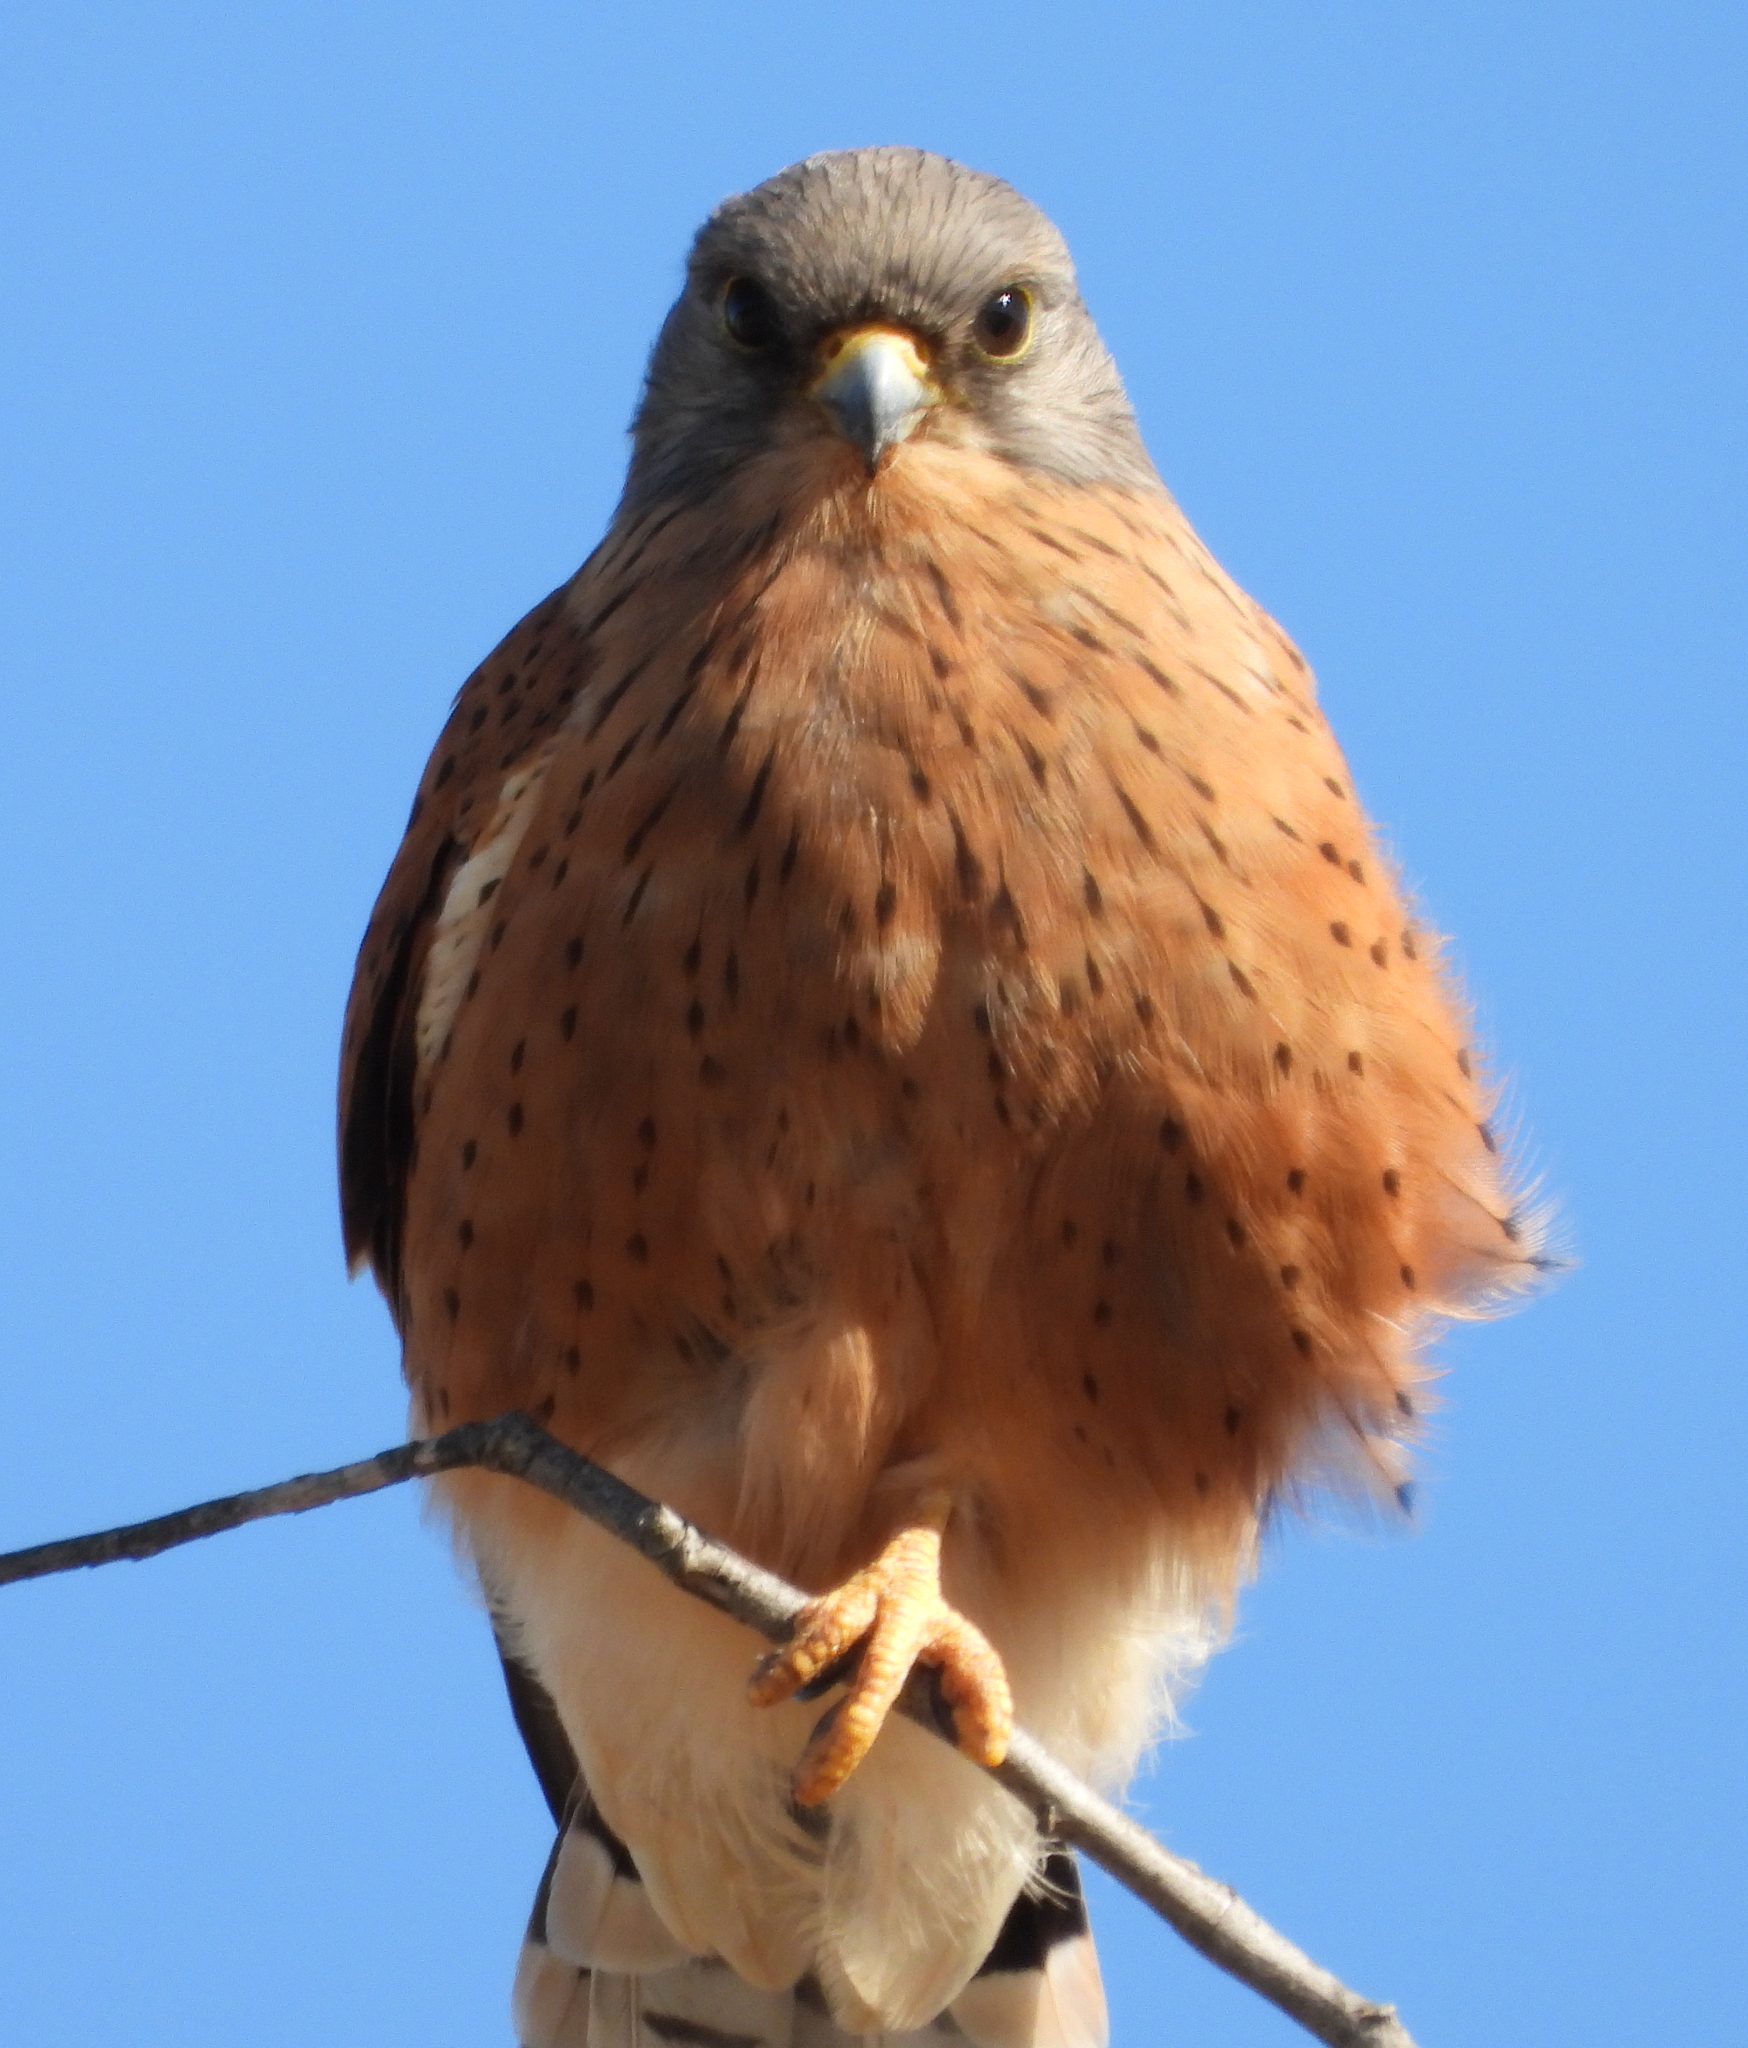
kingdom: Animalia
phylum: Chordata
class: Aves
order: Falconiformes
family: Falconidae
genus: Falco
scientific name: Falco rupicolus
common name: Rock kestrel
